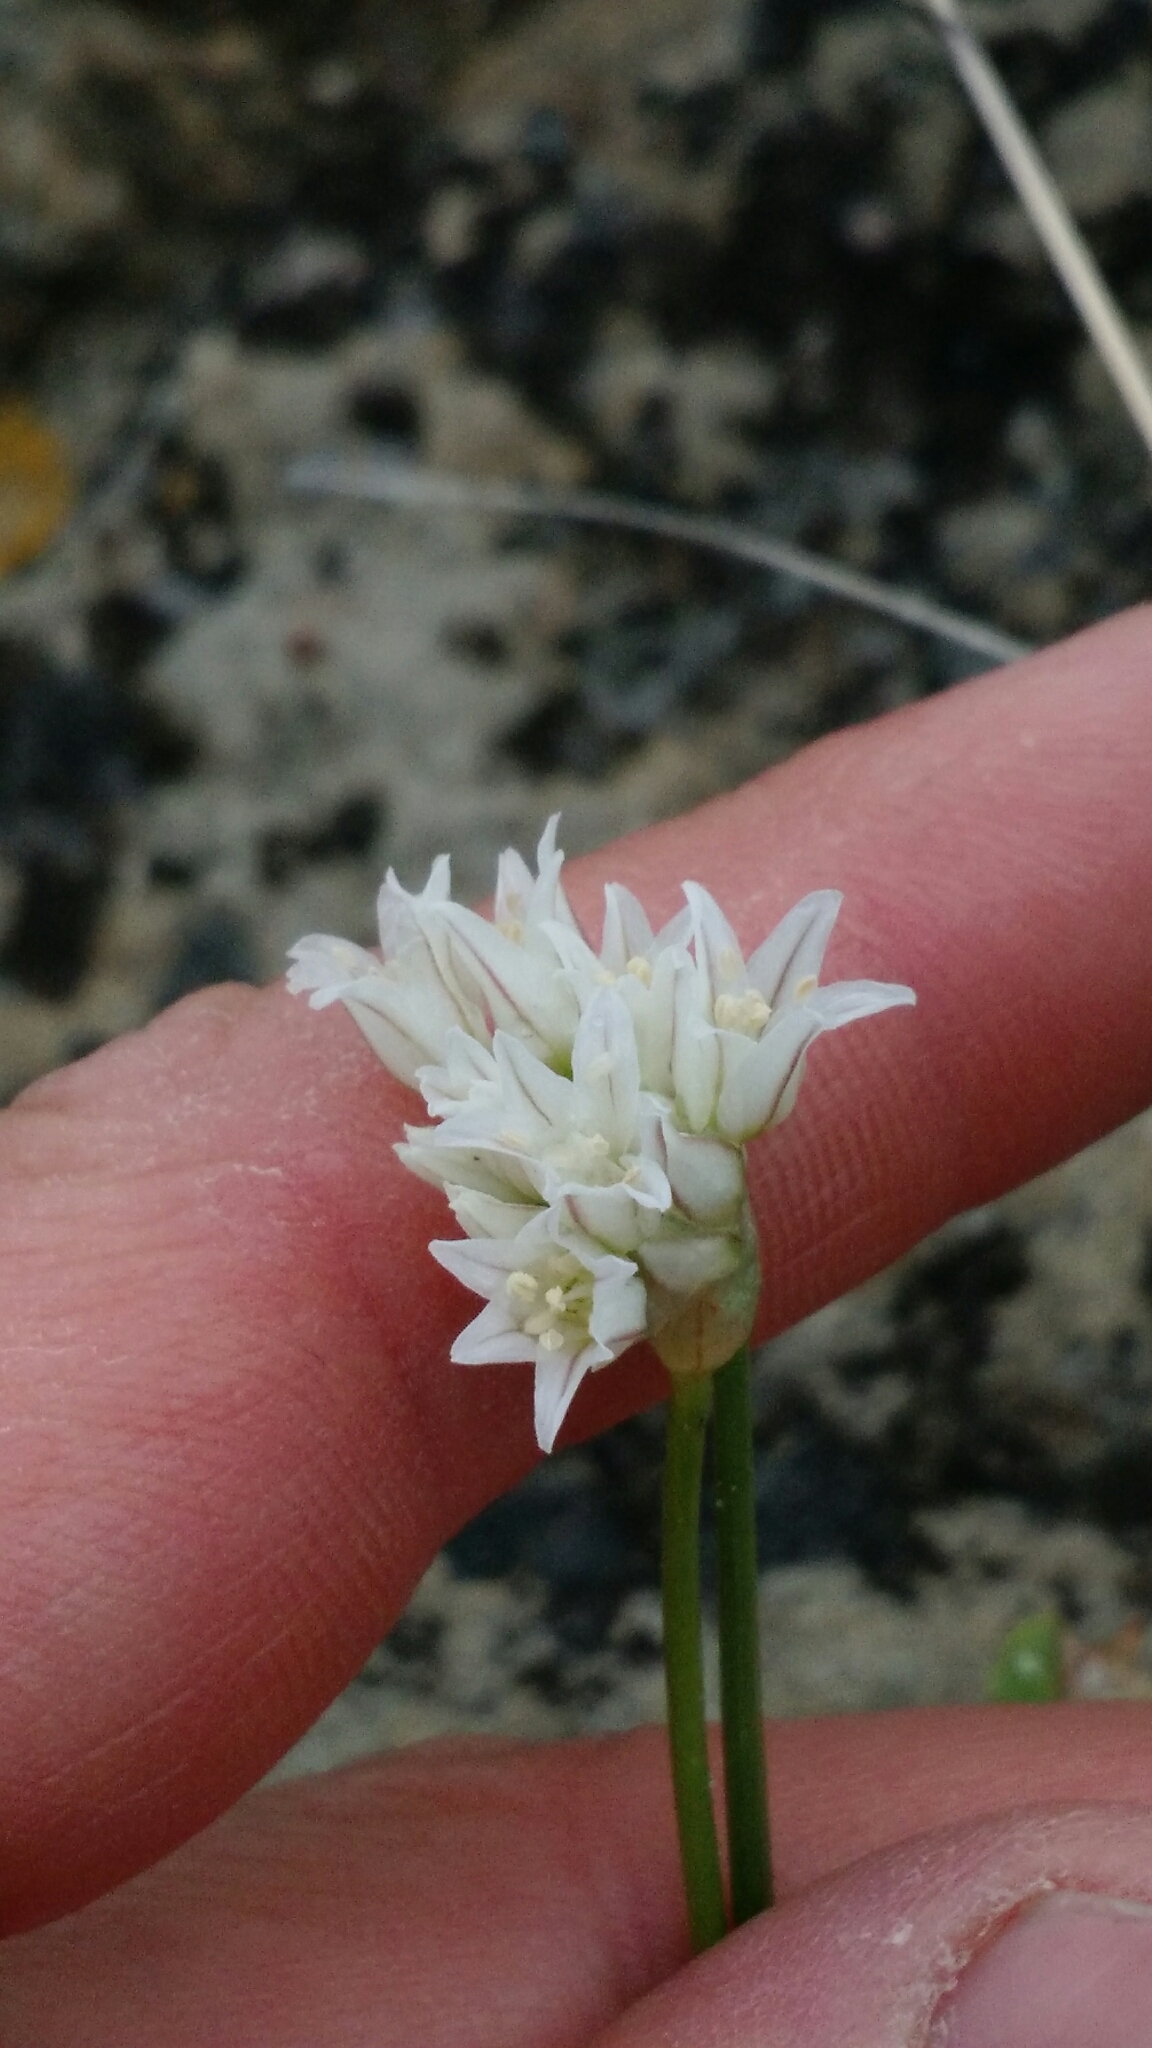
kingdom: Plantae
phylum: Tracheophyta
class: Liliopsida
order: Asparagales
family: Amaryllidaceae
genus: Allium
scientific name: Allium textile
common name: Prairie onion
